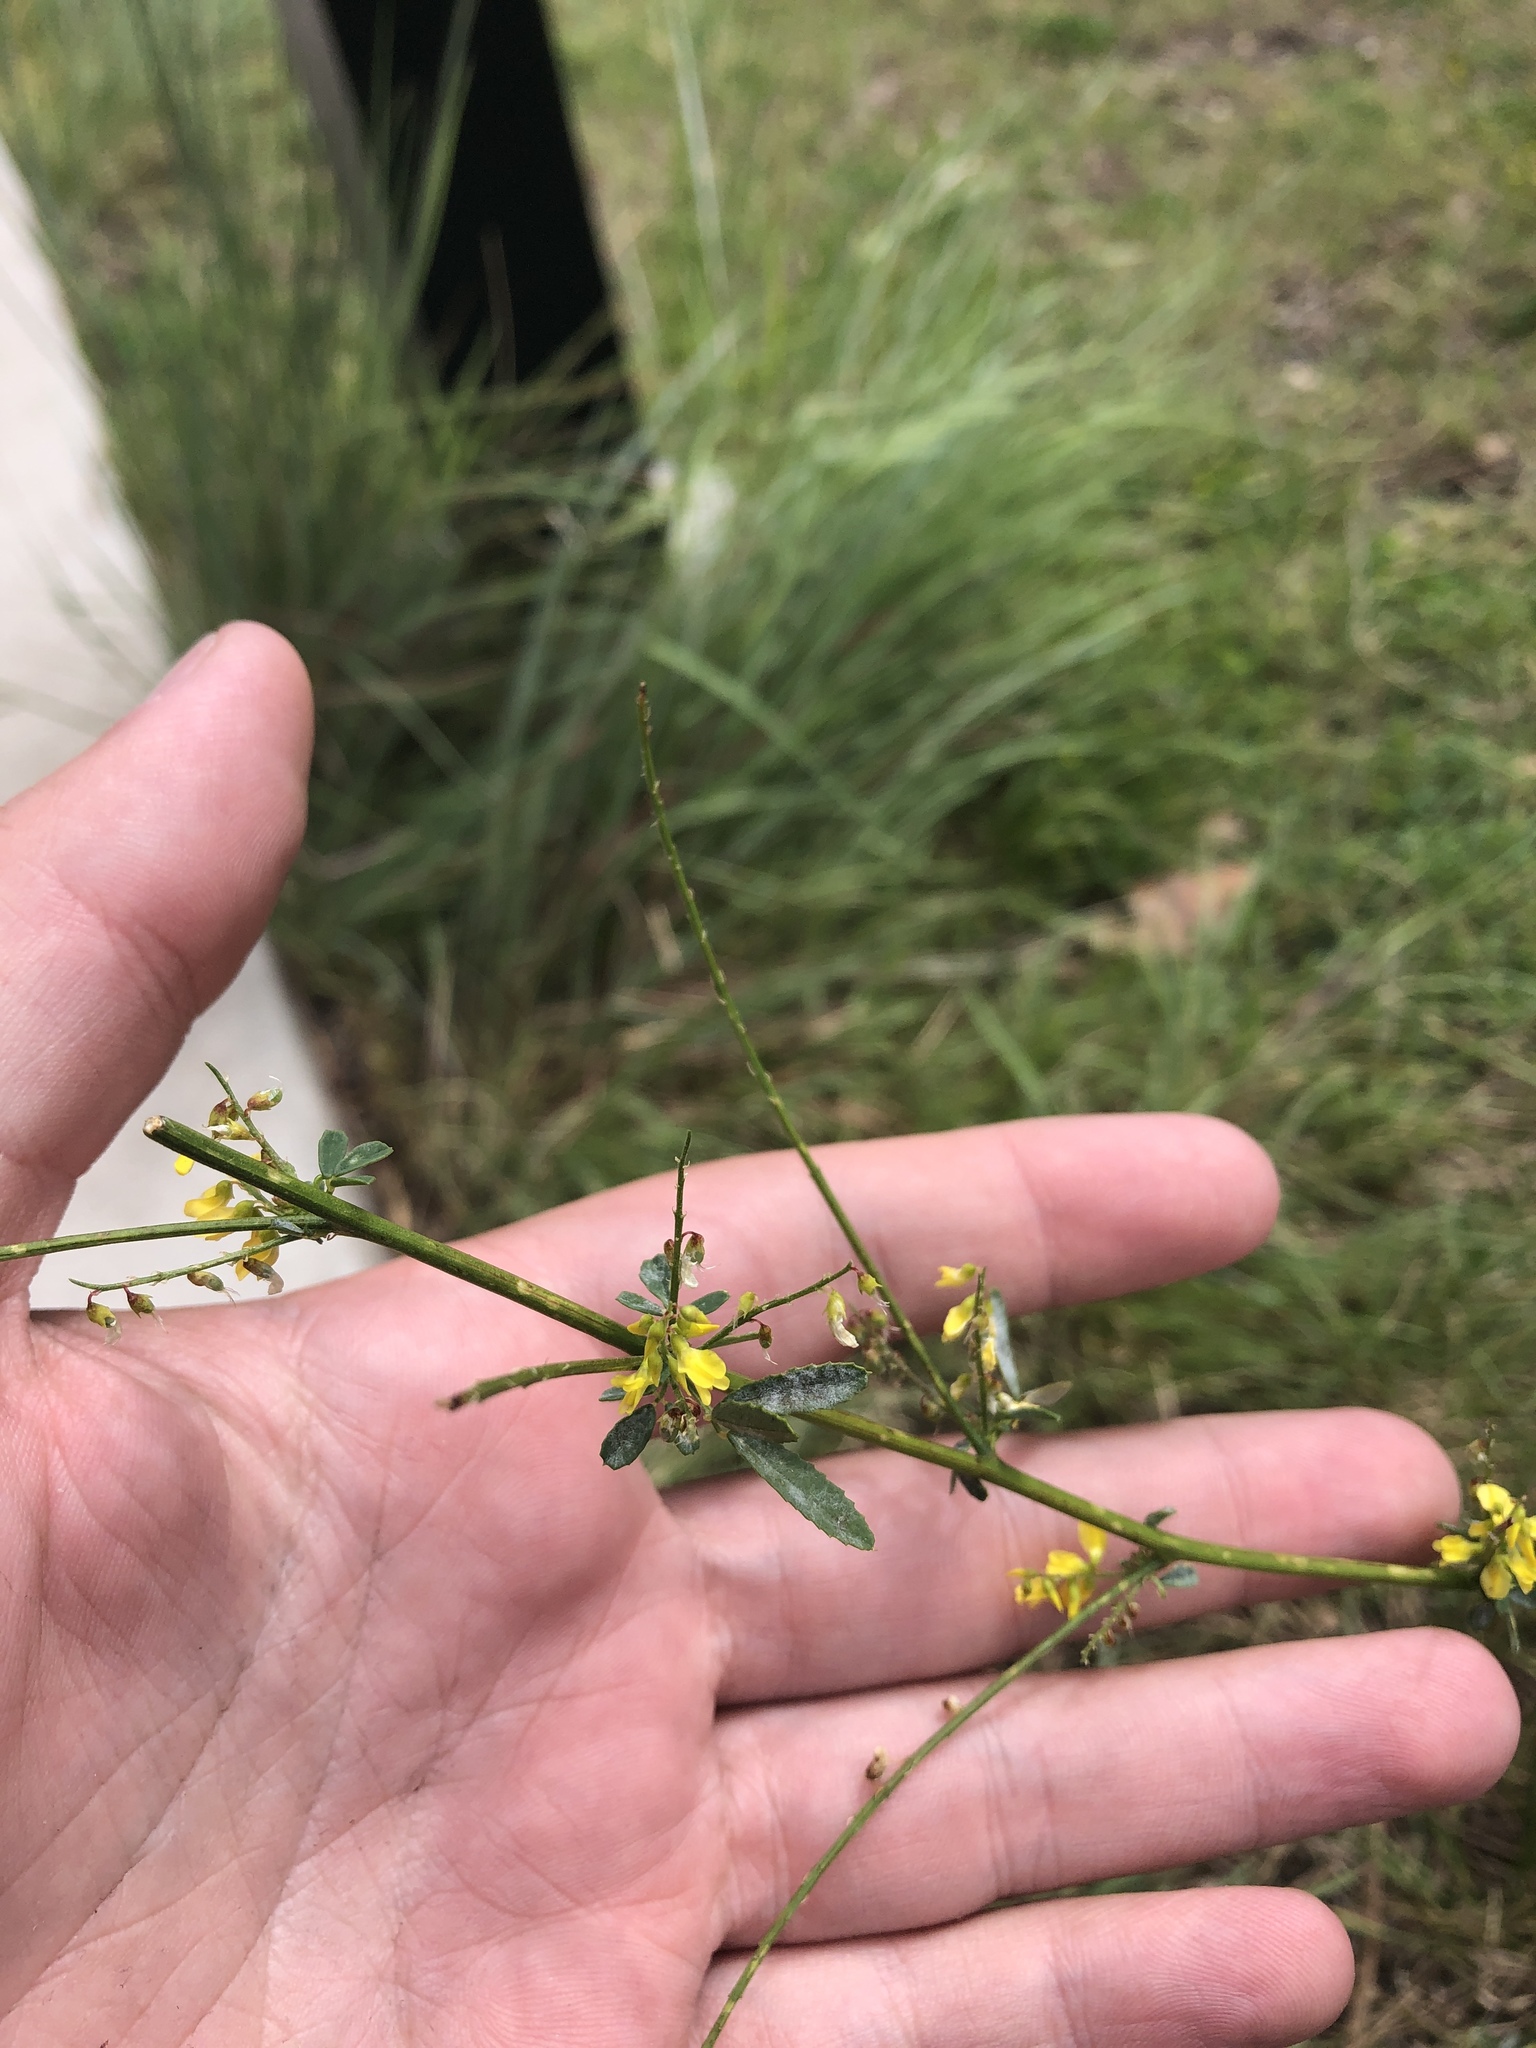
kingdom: Plantae
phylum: Tracheophyta
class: Magnoliopsida
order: Fabales
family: Fabaceae
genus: Melilotus
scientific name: Melilotus officinalis
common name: Sweetclover
